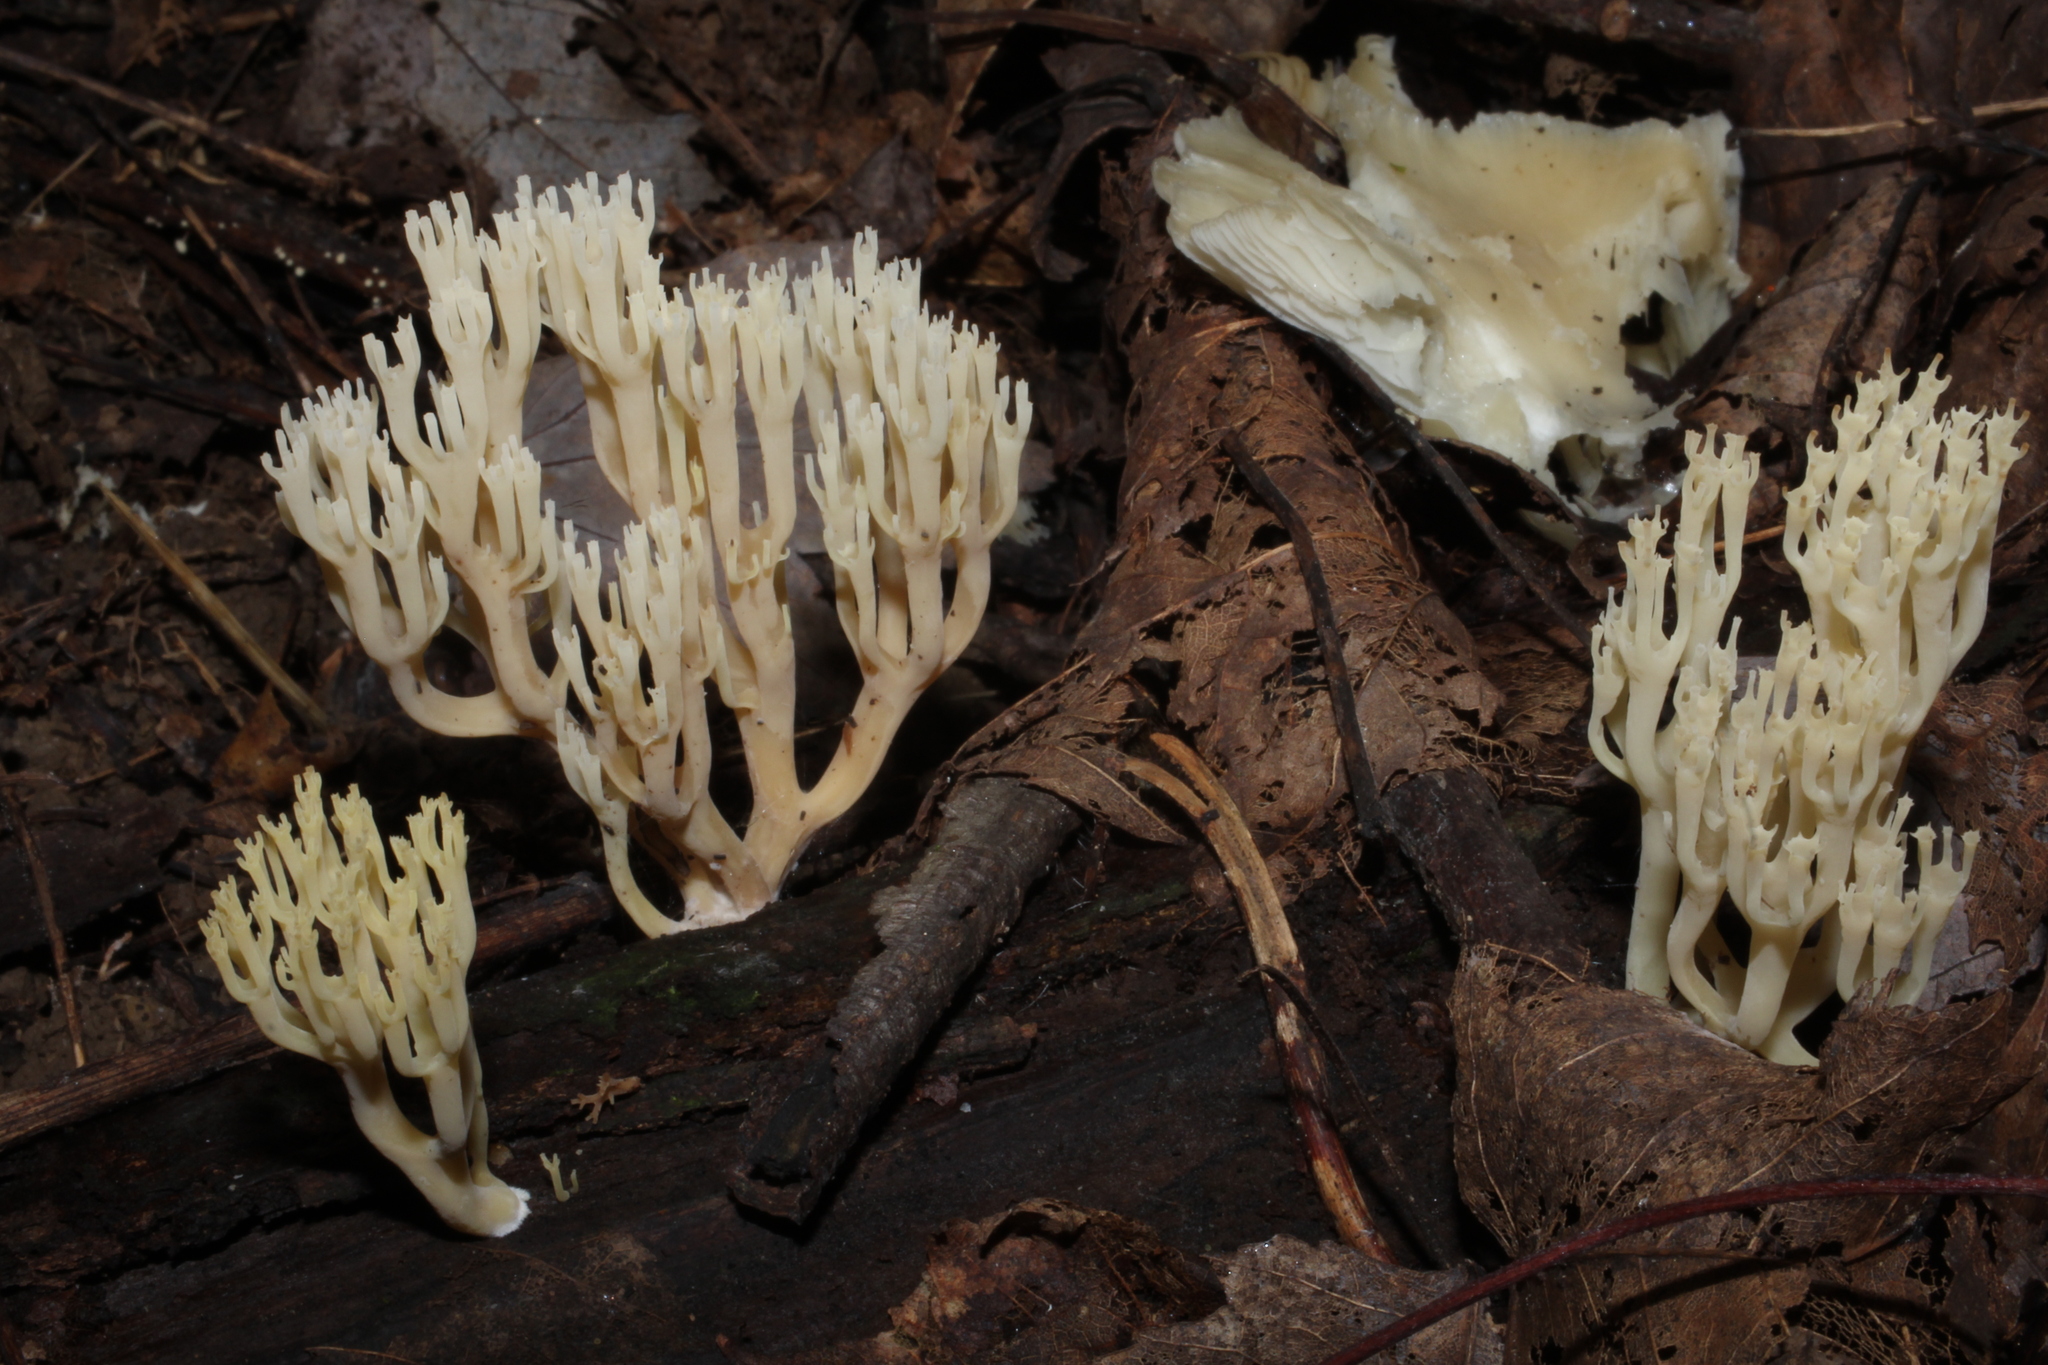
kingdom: Fungi
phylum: Basidiomycota
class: Agaricomycetes
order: Russulales
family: Auriscalpiaceae
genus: Artomyces
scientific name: Artomyces pyxidatus
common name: Crown-tipped coral fungus
